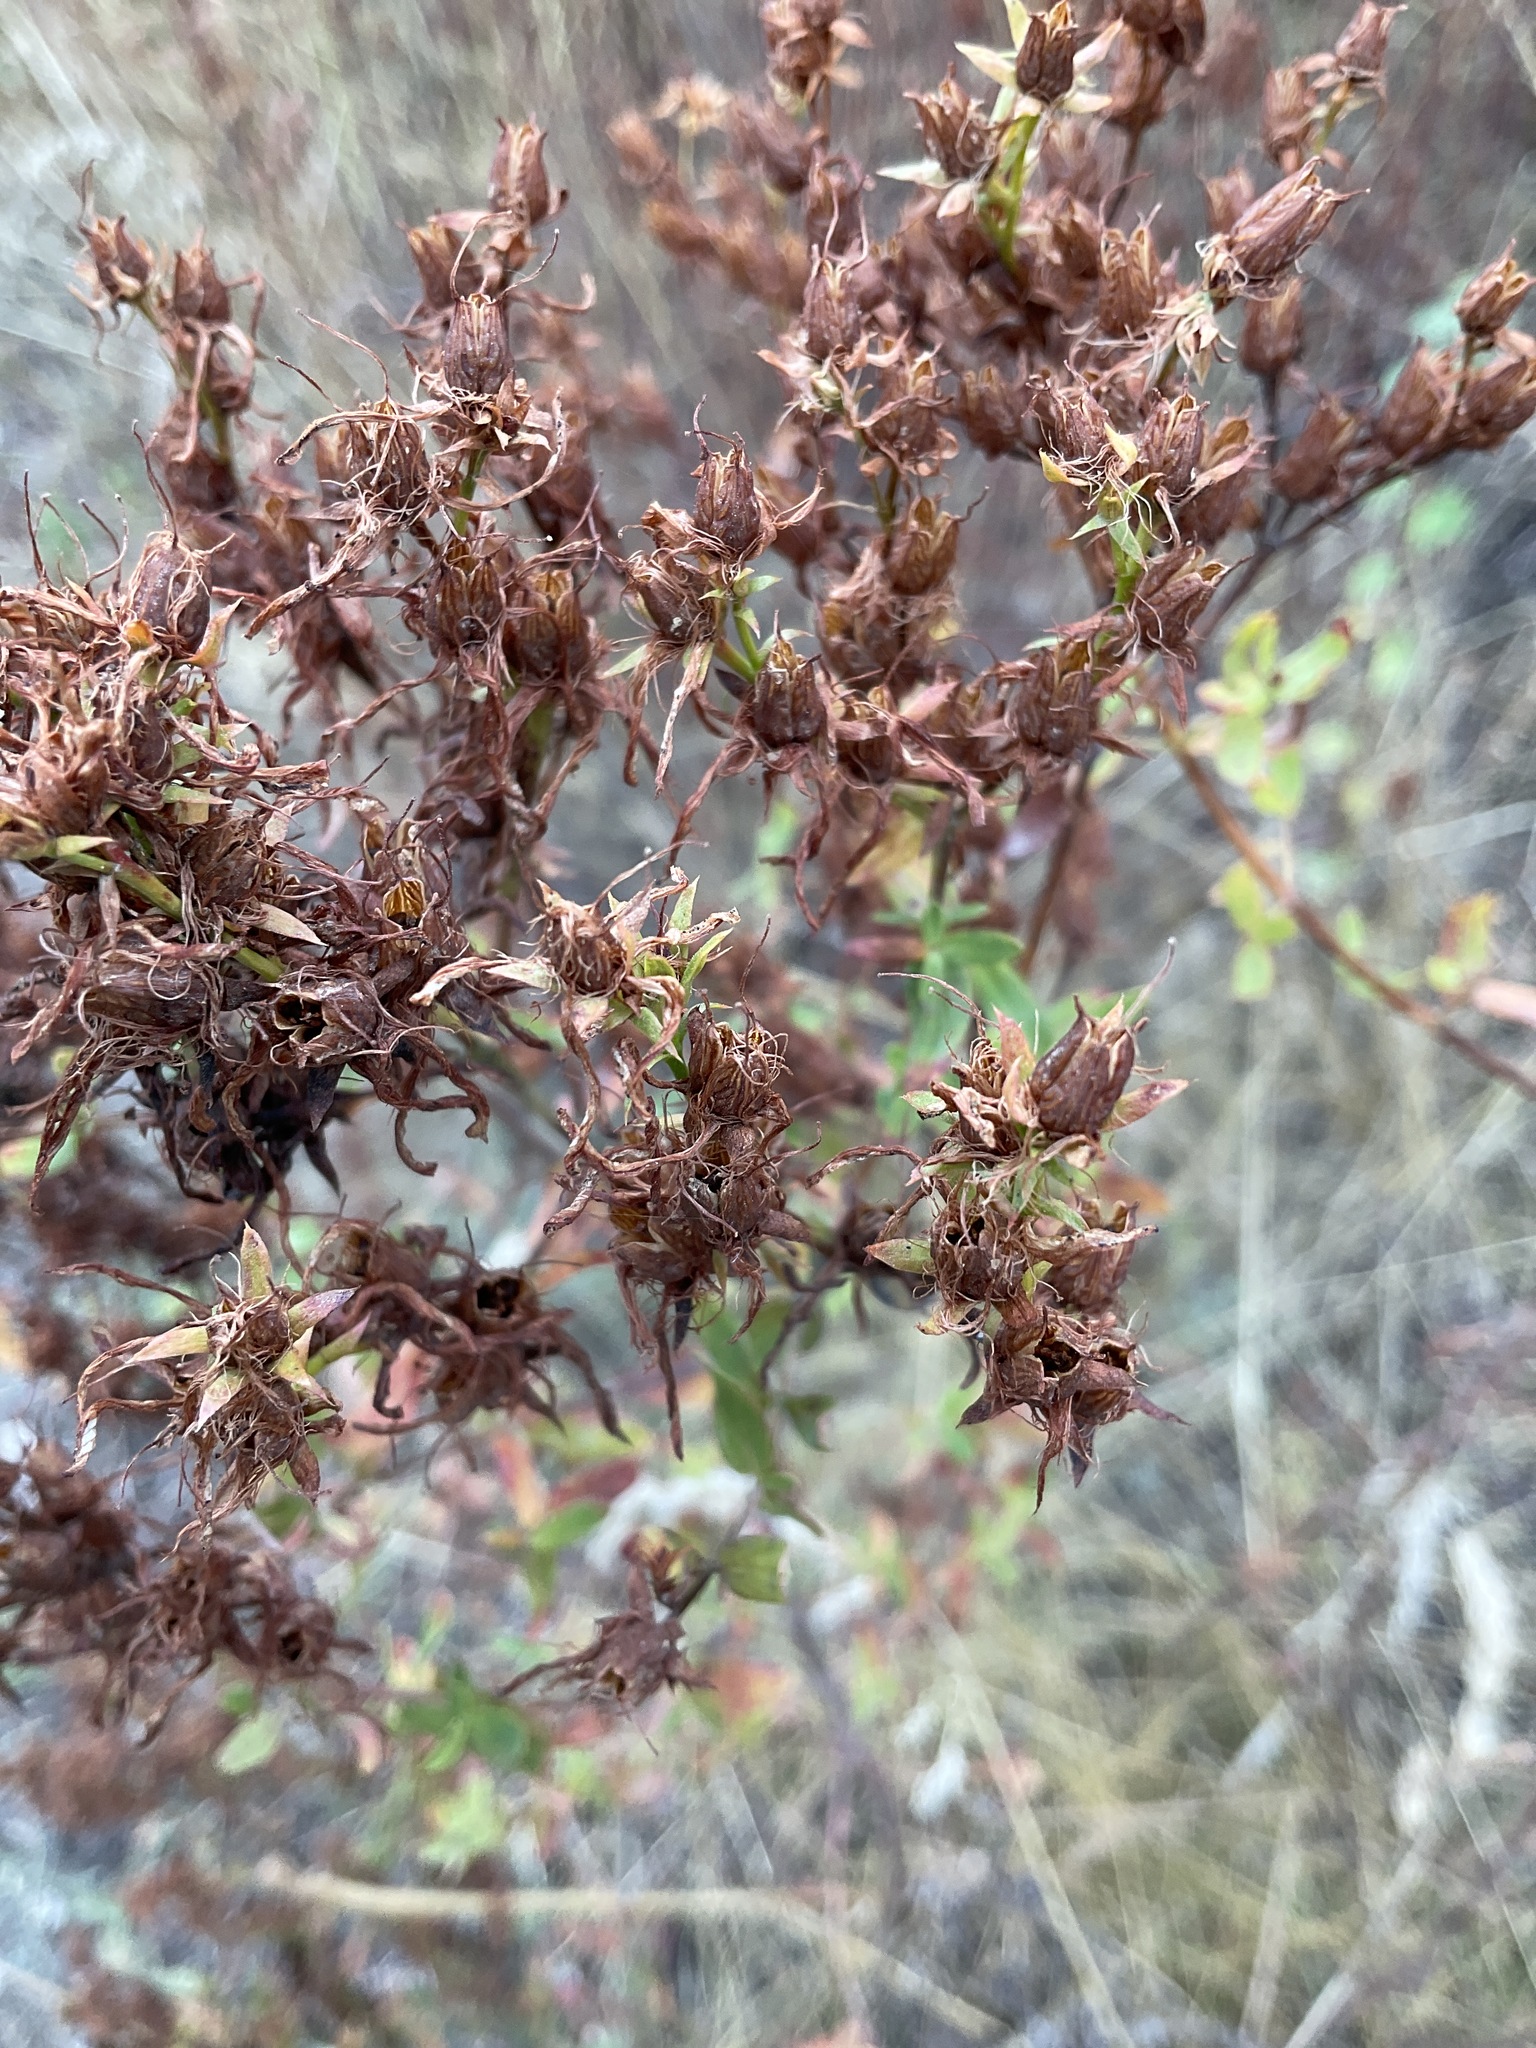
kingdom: Plantae
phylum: Tracheophyta
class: Magnoliopsida
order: Malpighiales
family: Hypericaceae
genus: Hypericum
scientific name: Hypericum perforatum
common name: Common st. johnswort
